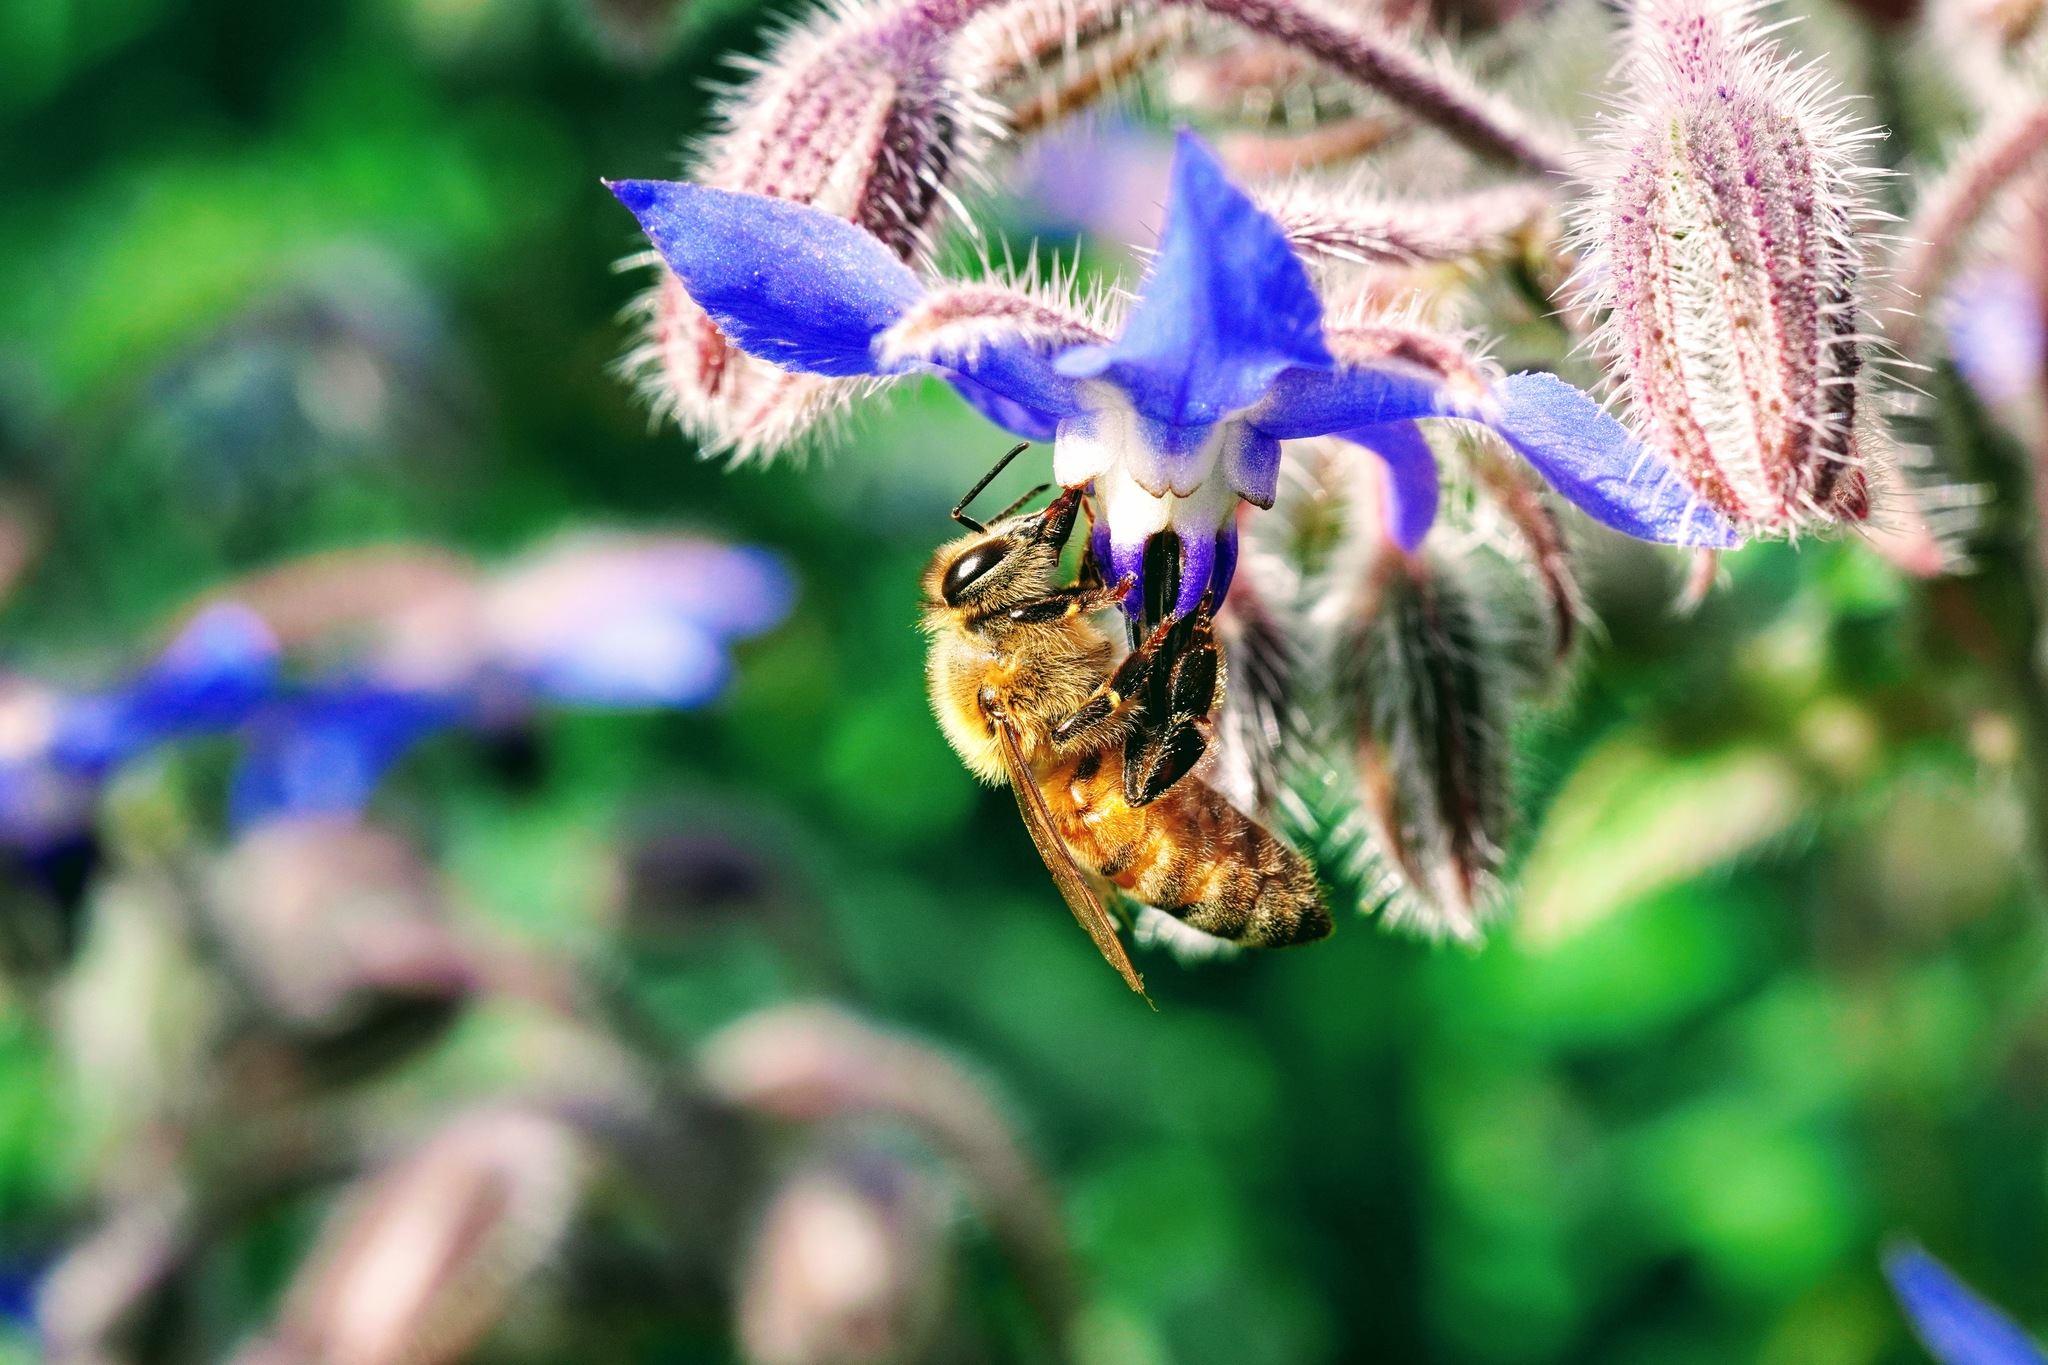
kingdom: Animalia
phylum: Arthropoda
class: Insecta
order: Hymenoptera
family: Apidae
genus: Apis
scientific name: Apis mellifera
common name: Honey bee
